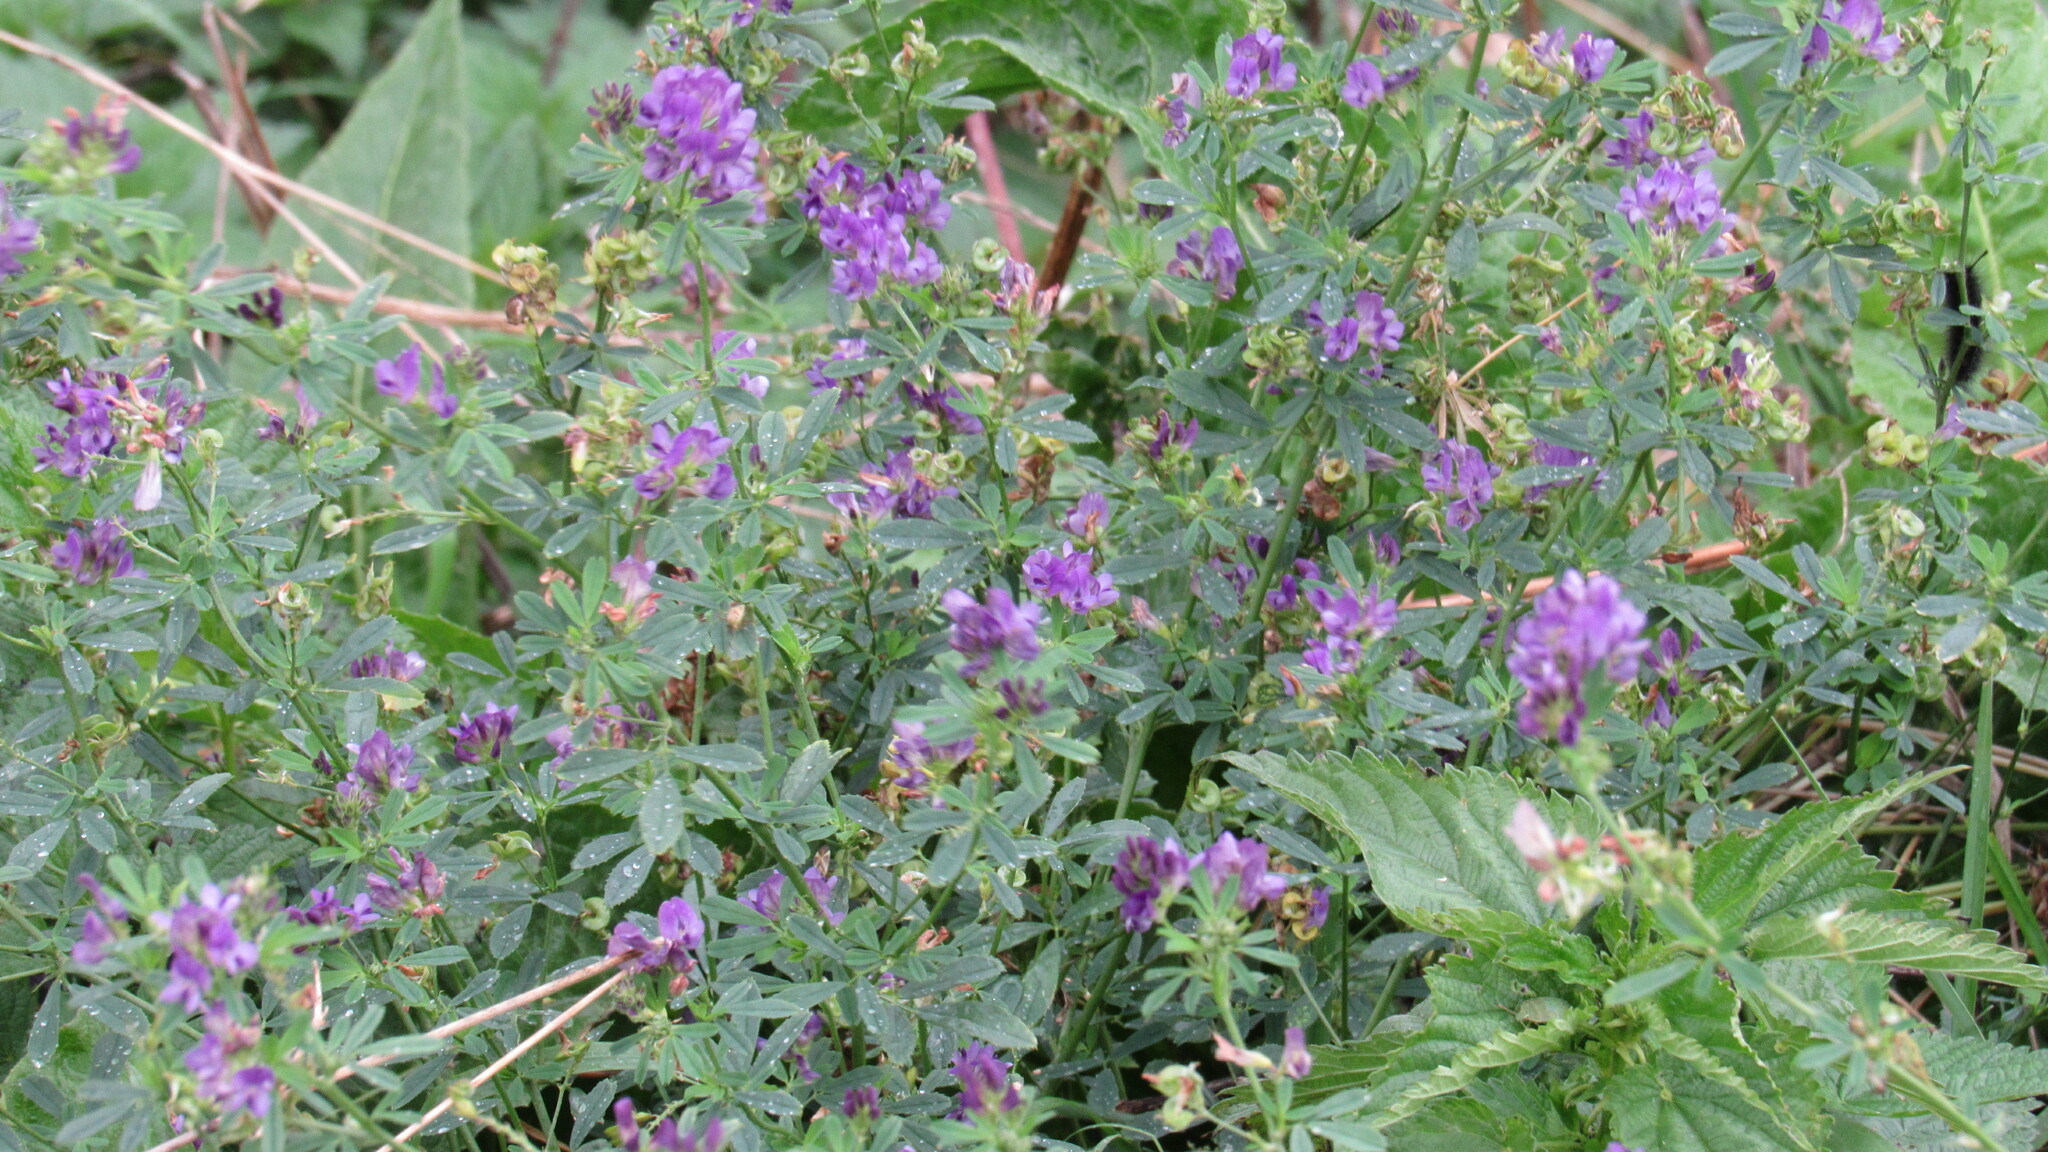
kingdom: Plantae
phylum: Tracheophyta
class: Magnoliopsida
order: Fabales
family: Fabaceae
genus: Medicago
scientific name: Medicago varia
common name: Sand lucerne
